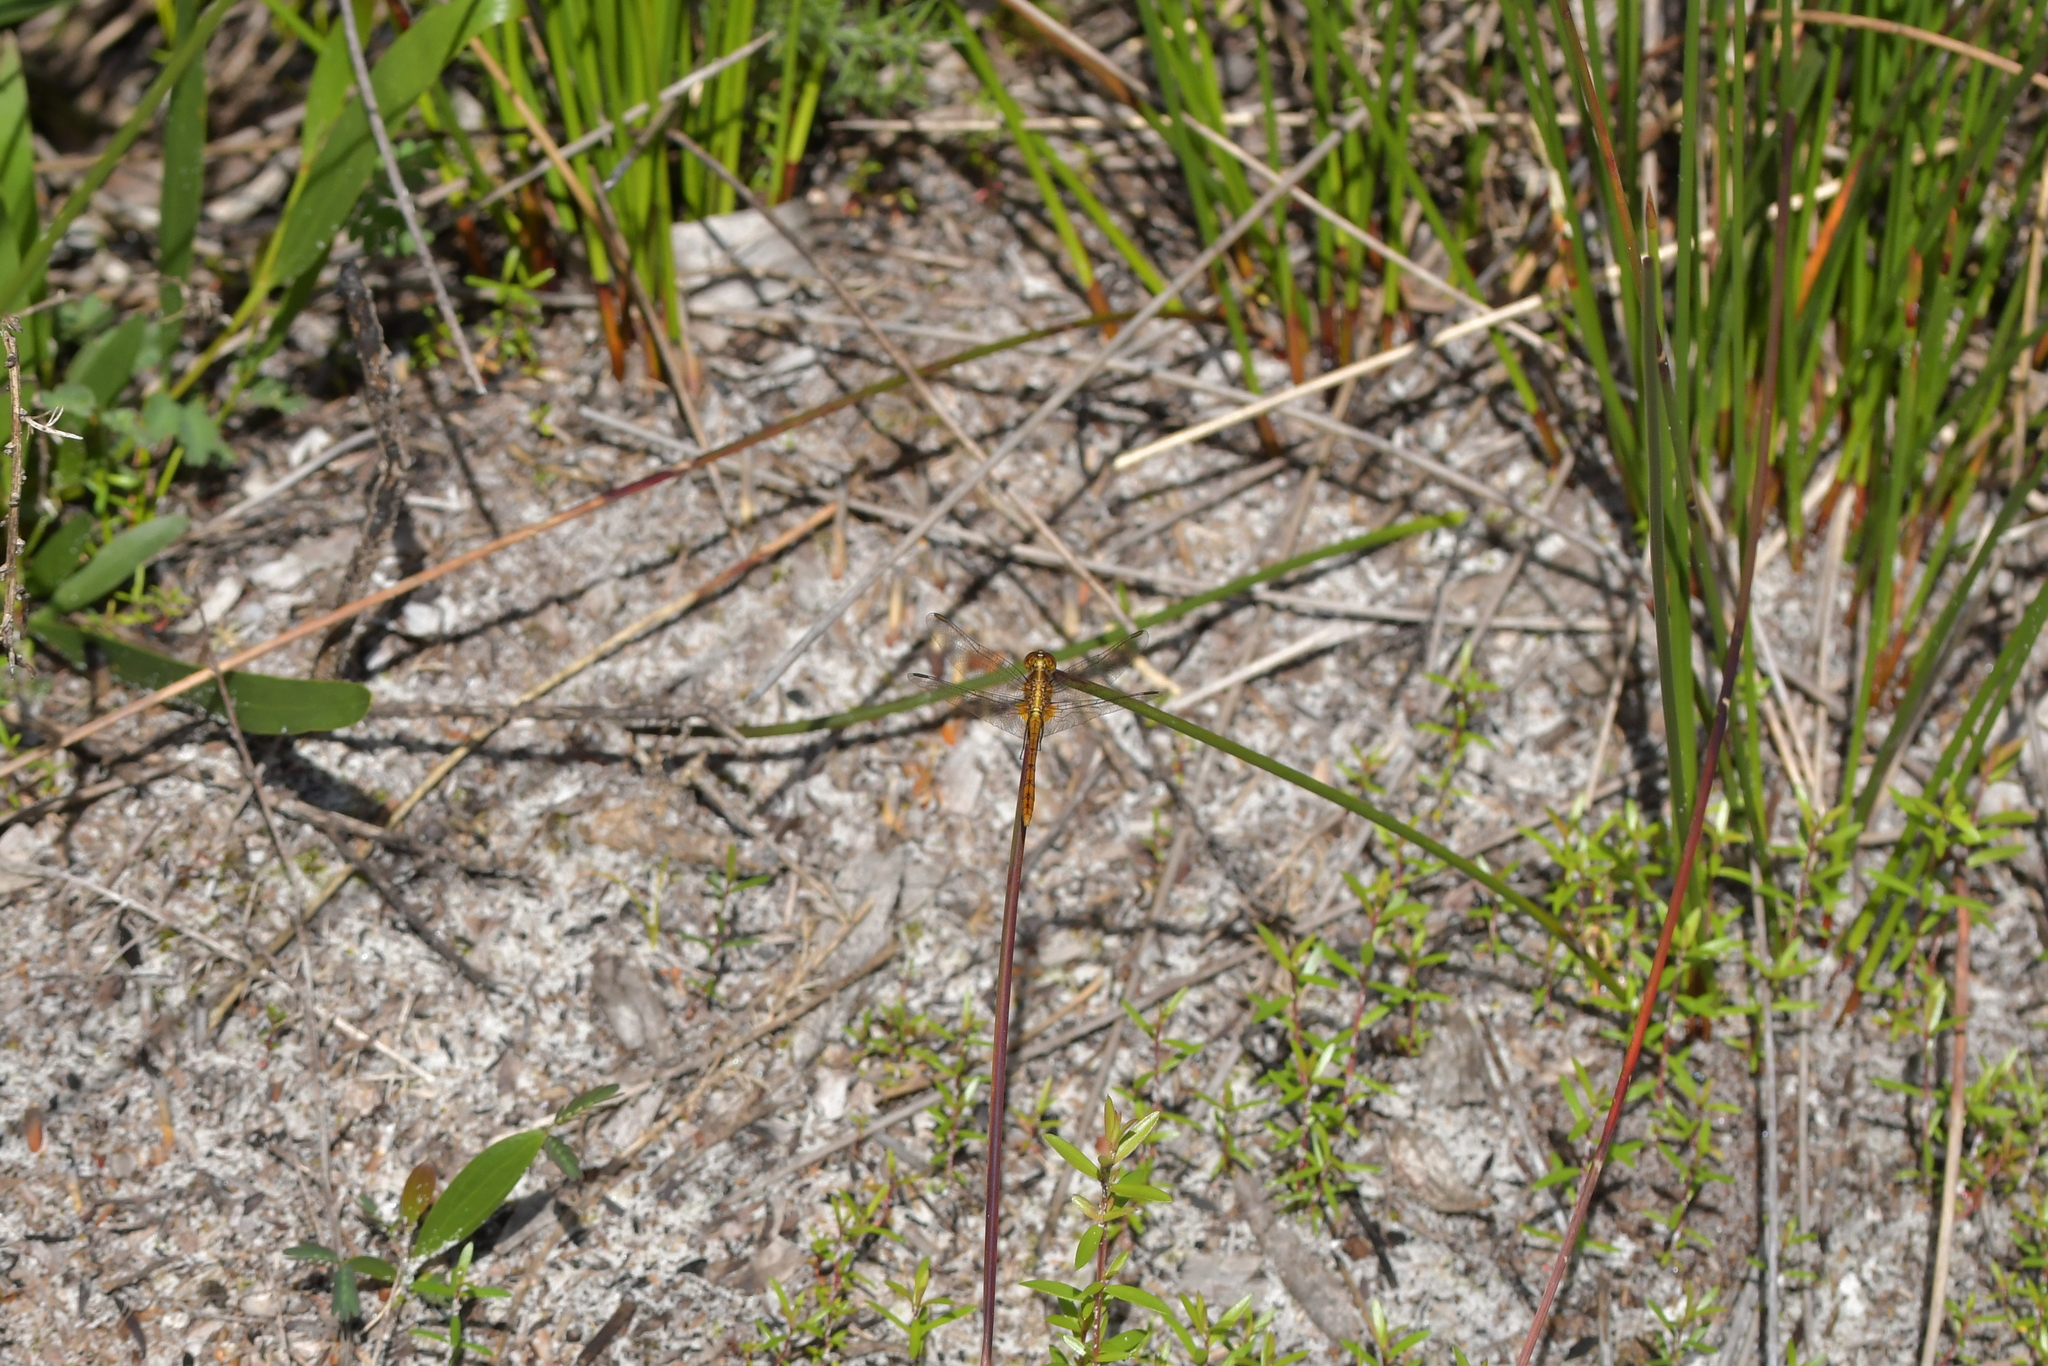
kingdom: Animalia
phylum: Arthropoda
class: Insecta
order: Odonata
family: Libellulidae
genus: Diplacodes
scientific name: Diplacodes bipunctata
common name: Red percher dragonfly
